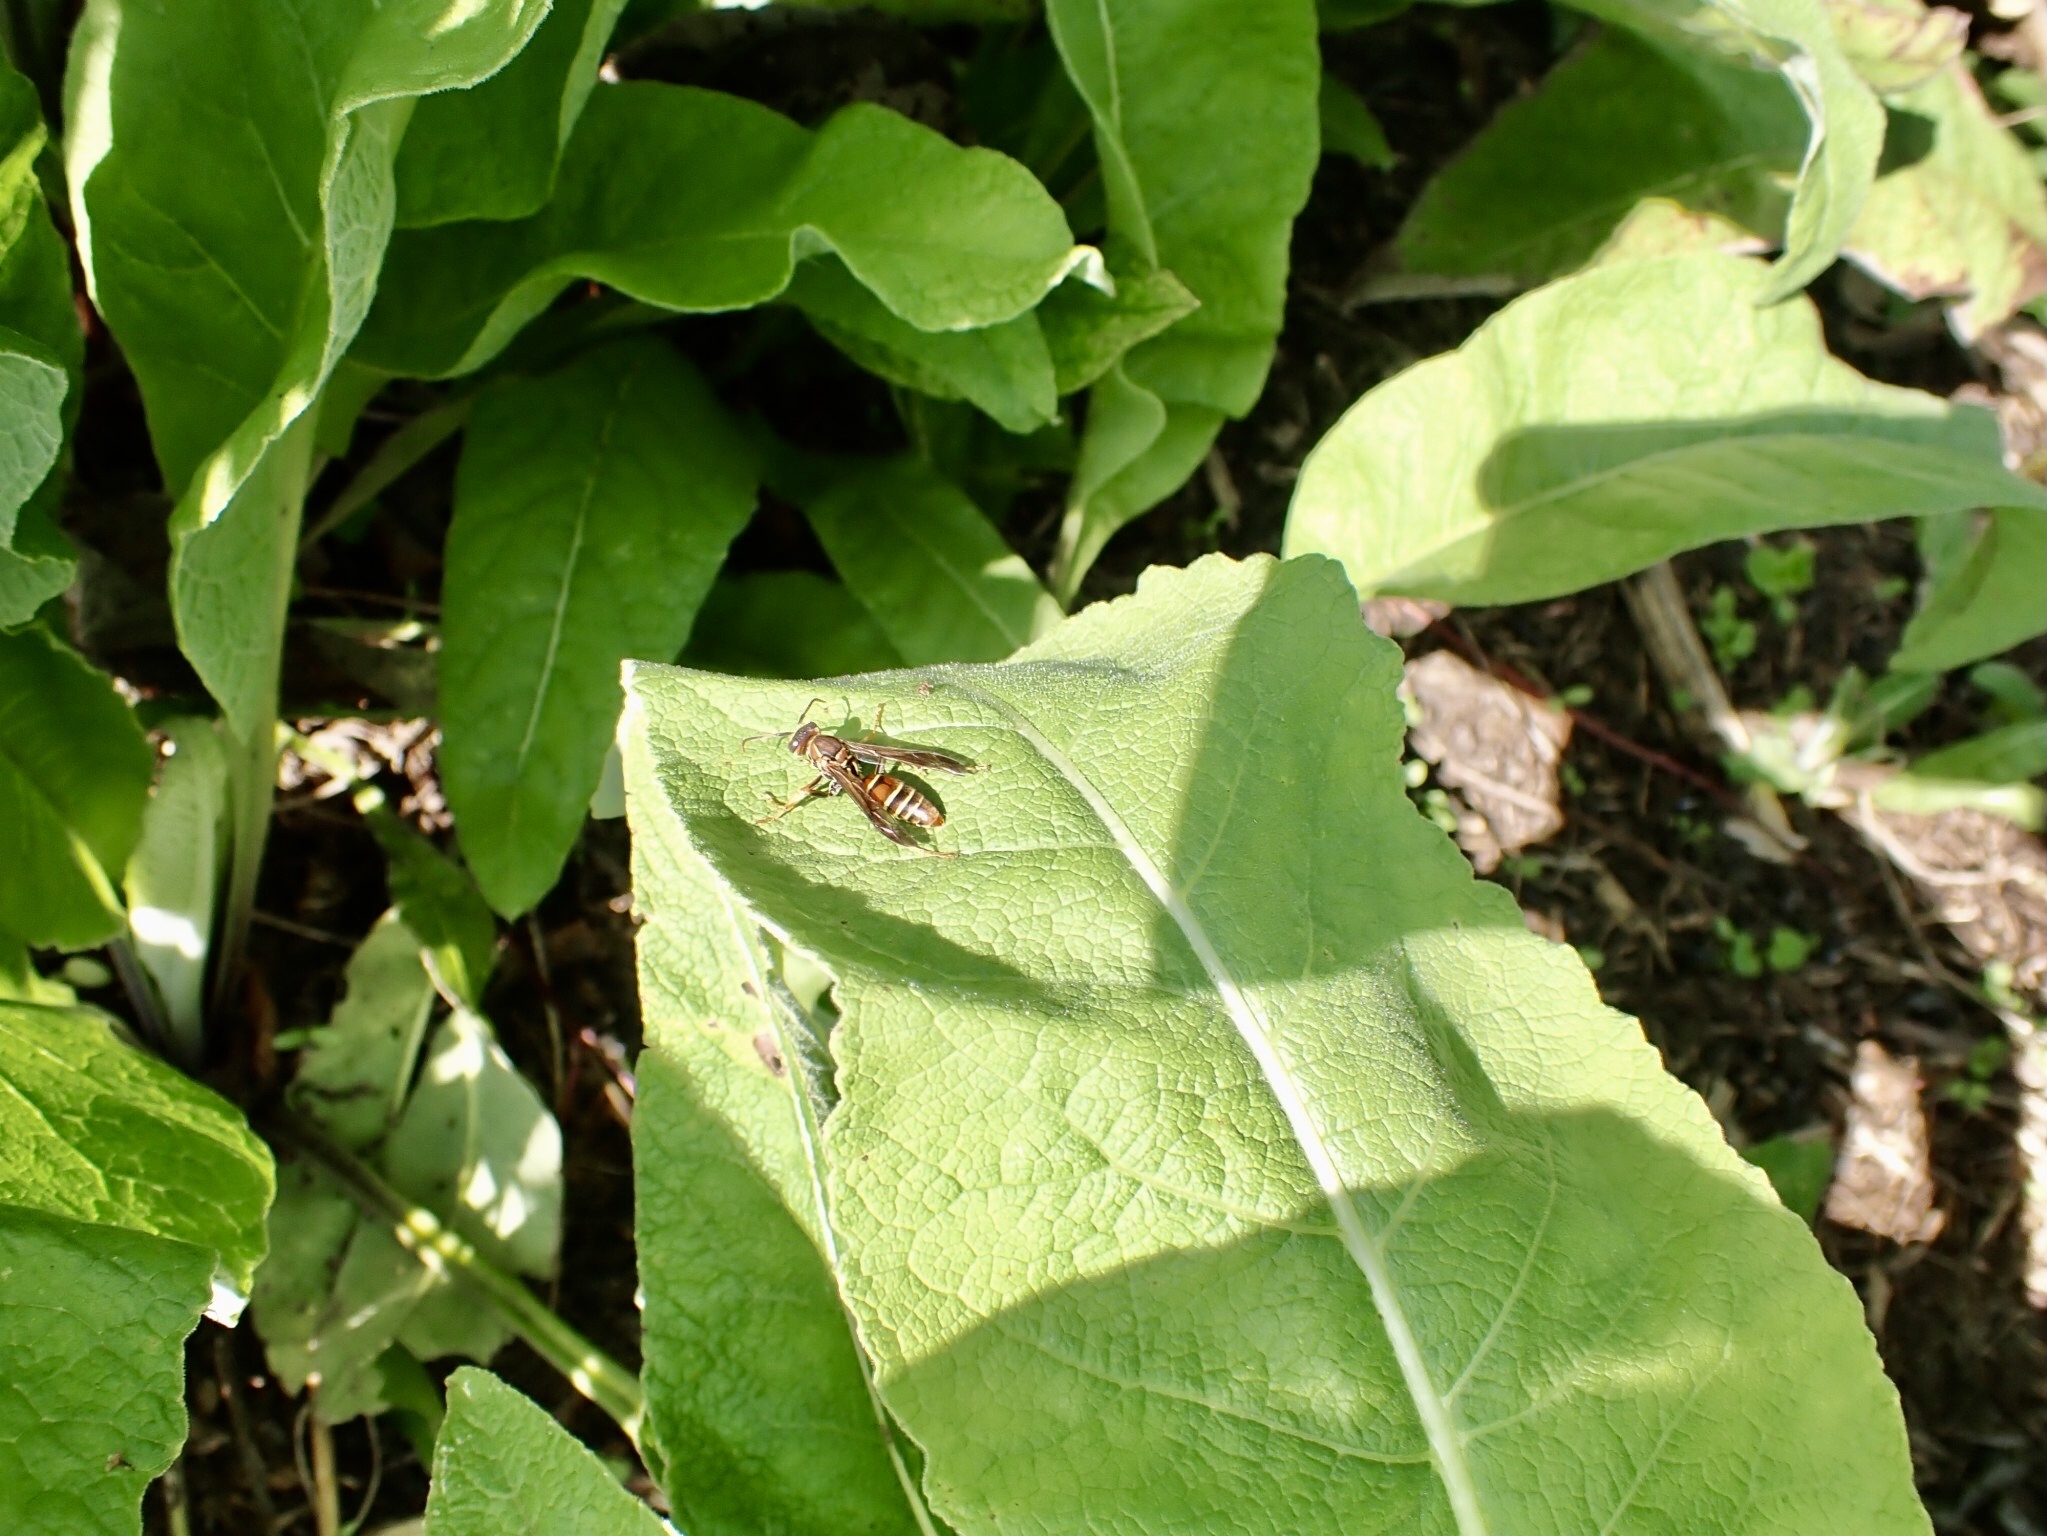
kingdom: Animalia
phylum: Arthropoda
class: Insecta
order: Hymenoptera
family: Eumenidae
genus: Polistes
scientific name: Polistes dorsalis
